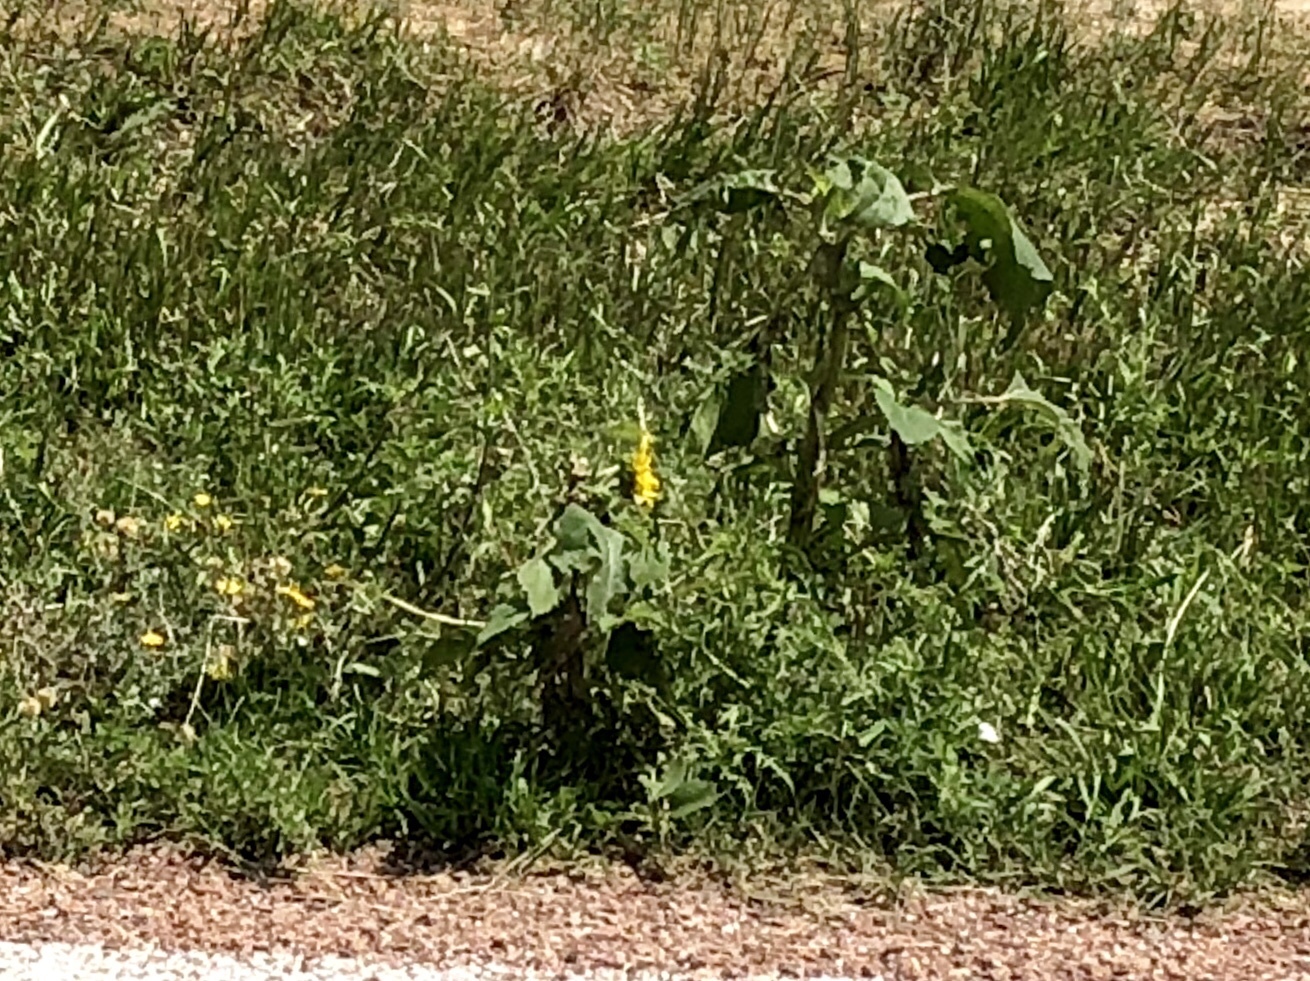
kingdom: Plantae
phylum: Tracheophyta
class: Magnoliopsida
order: Asterales
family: Asteraceae
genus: Helianthus
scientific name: Helianthus annuus
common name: Sunflower
